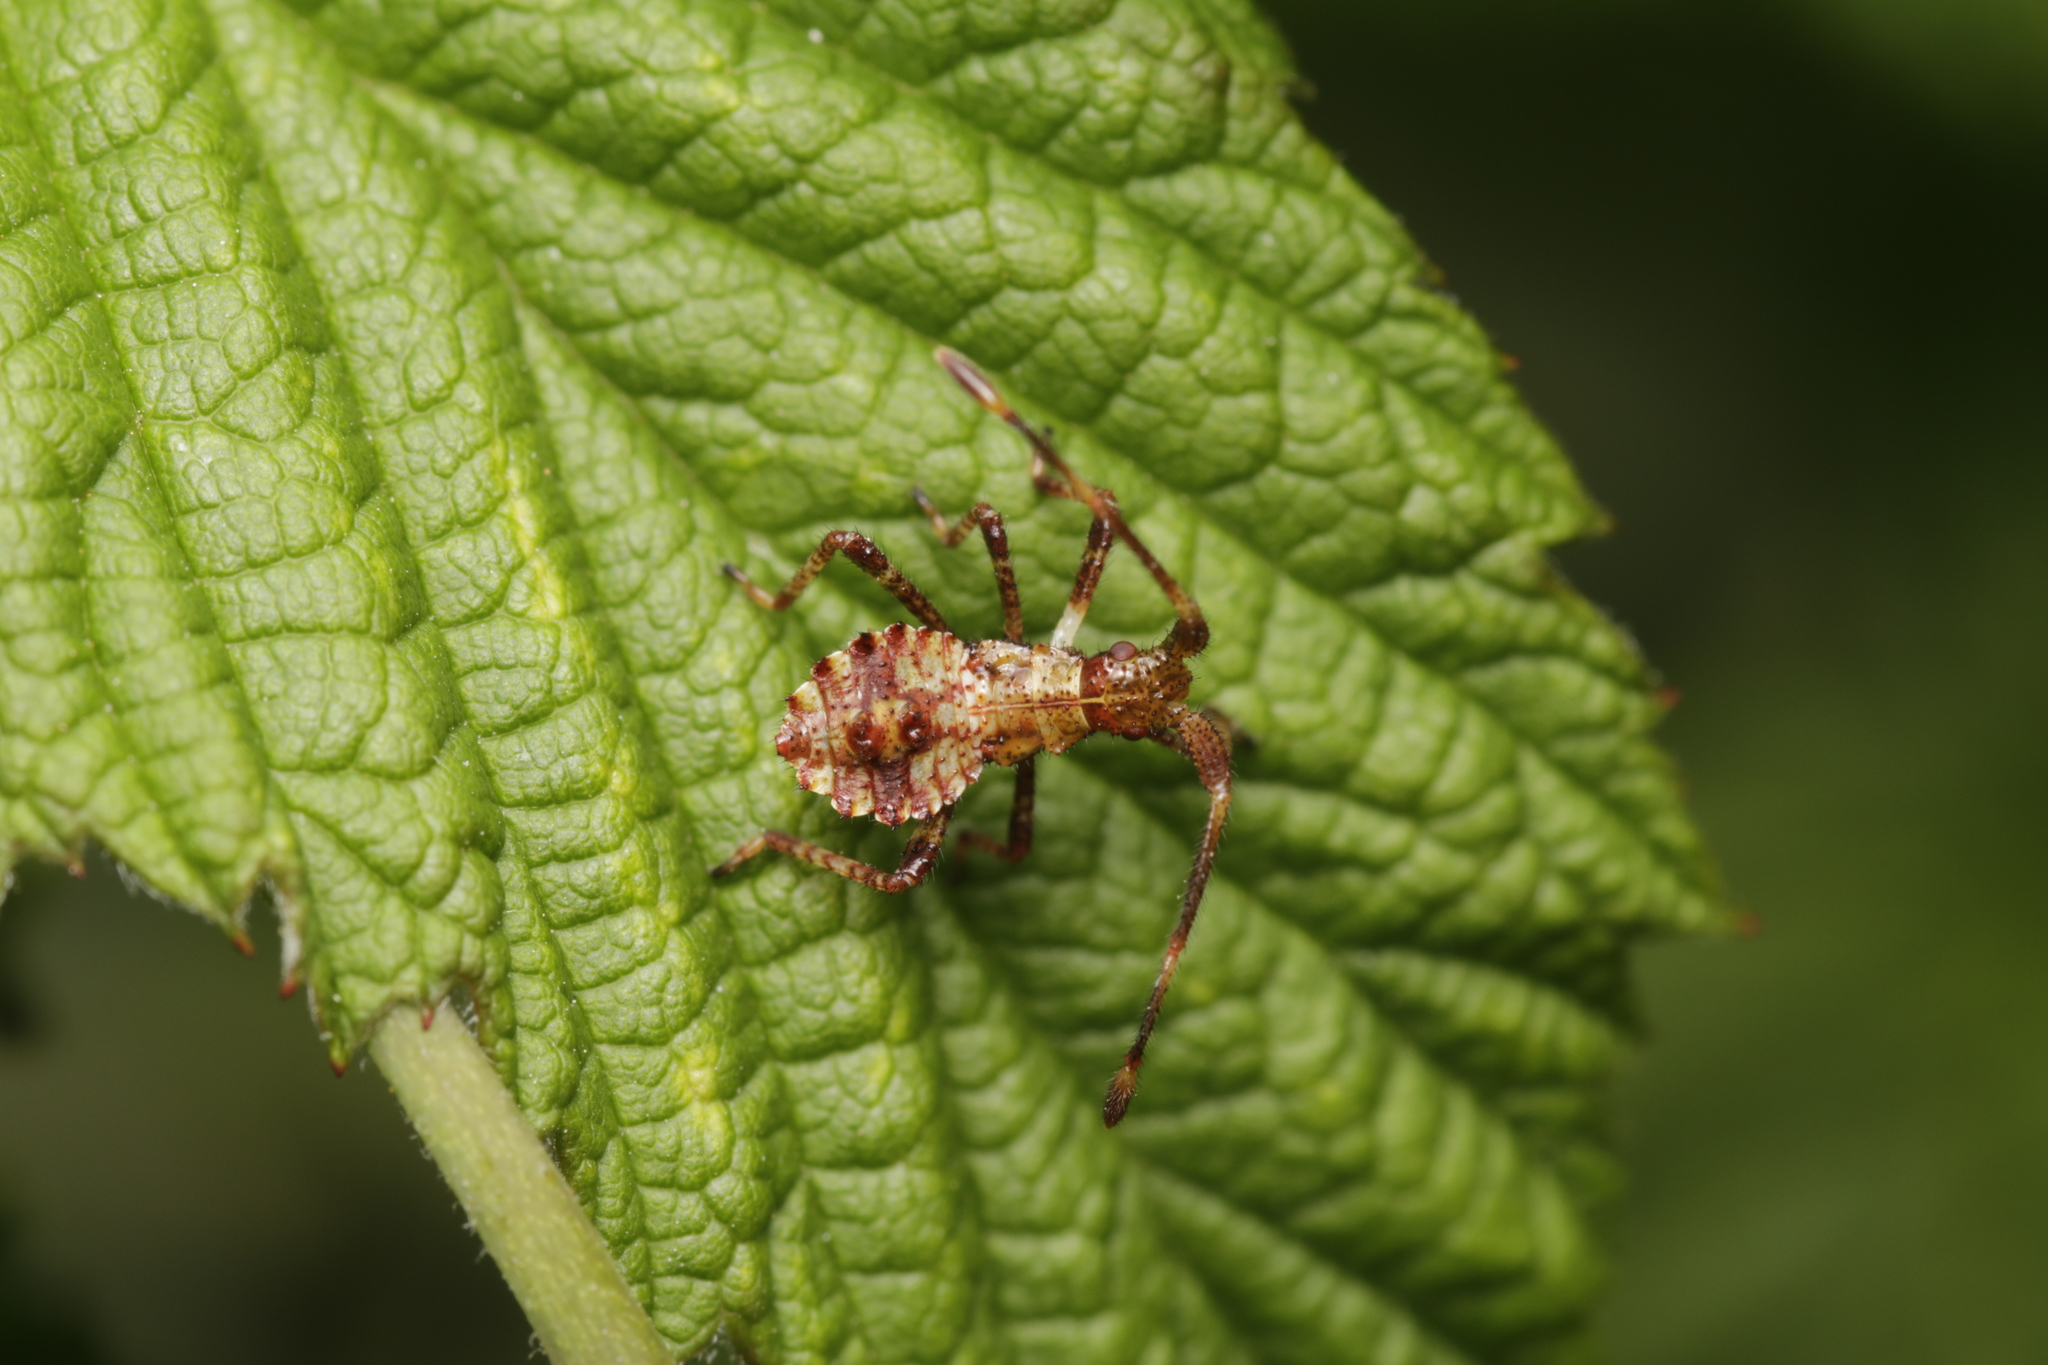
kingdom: Animalia
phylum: Arthropoda
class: Insecta
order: Hemiptera
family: Coreidae
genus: Coreus
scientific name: Coreus marginatus
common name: Dock bug
